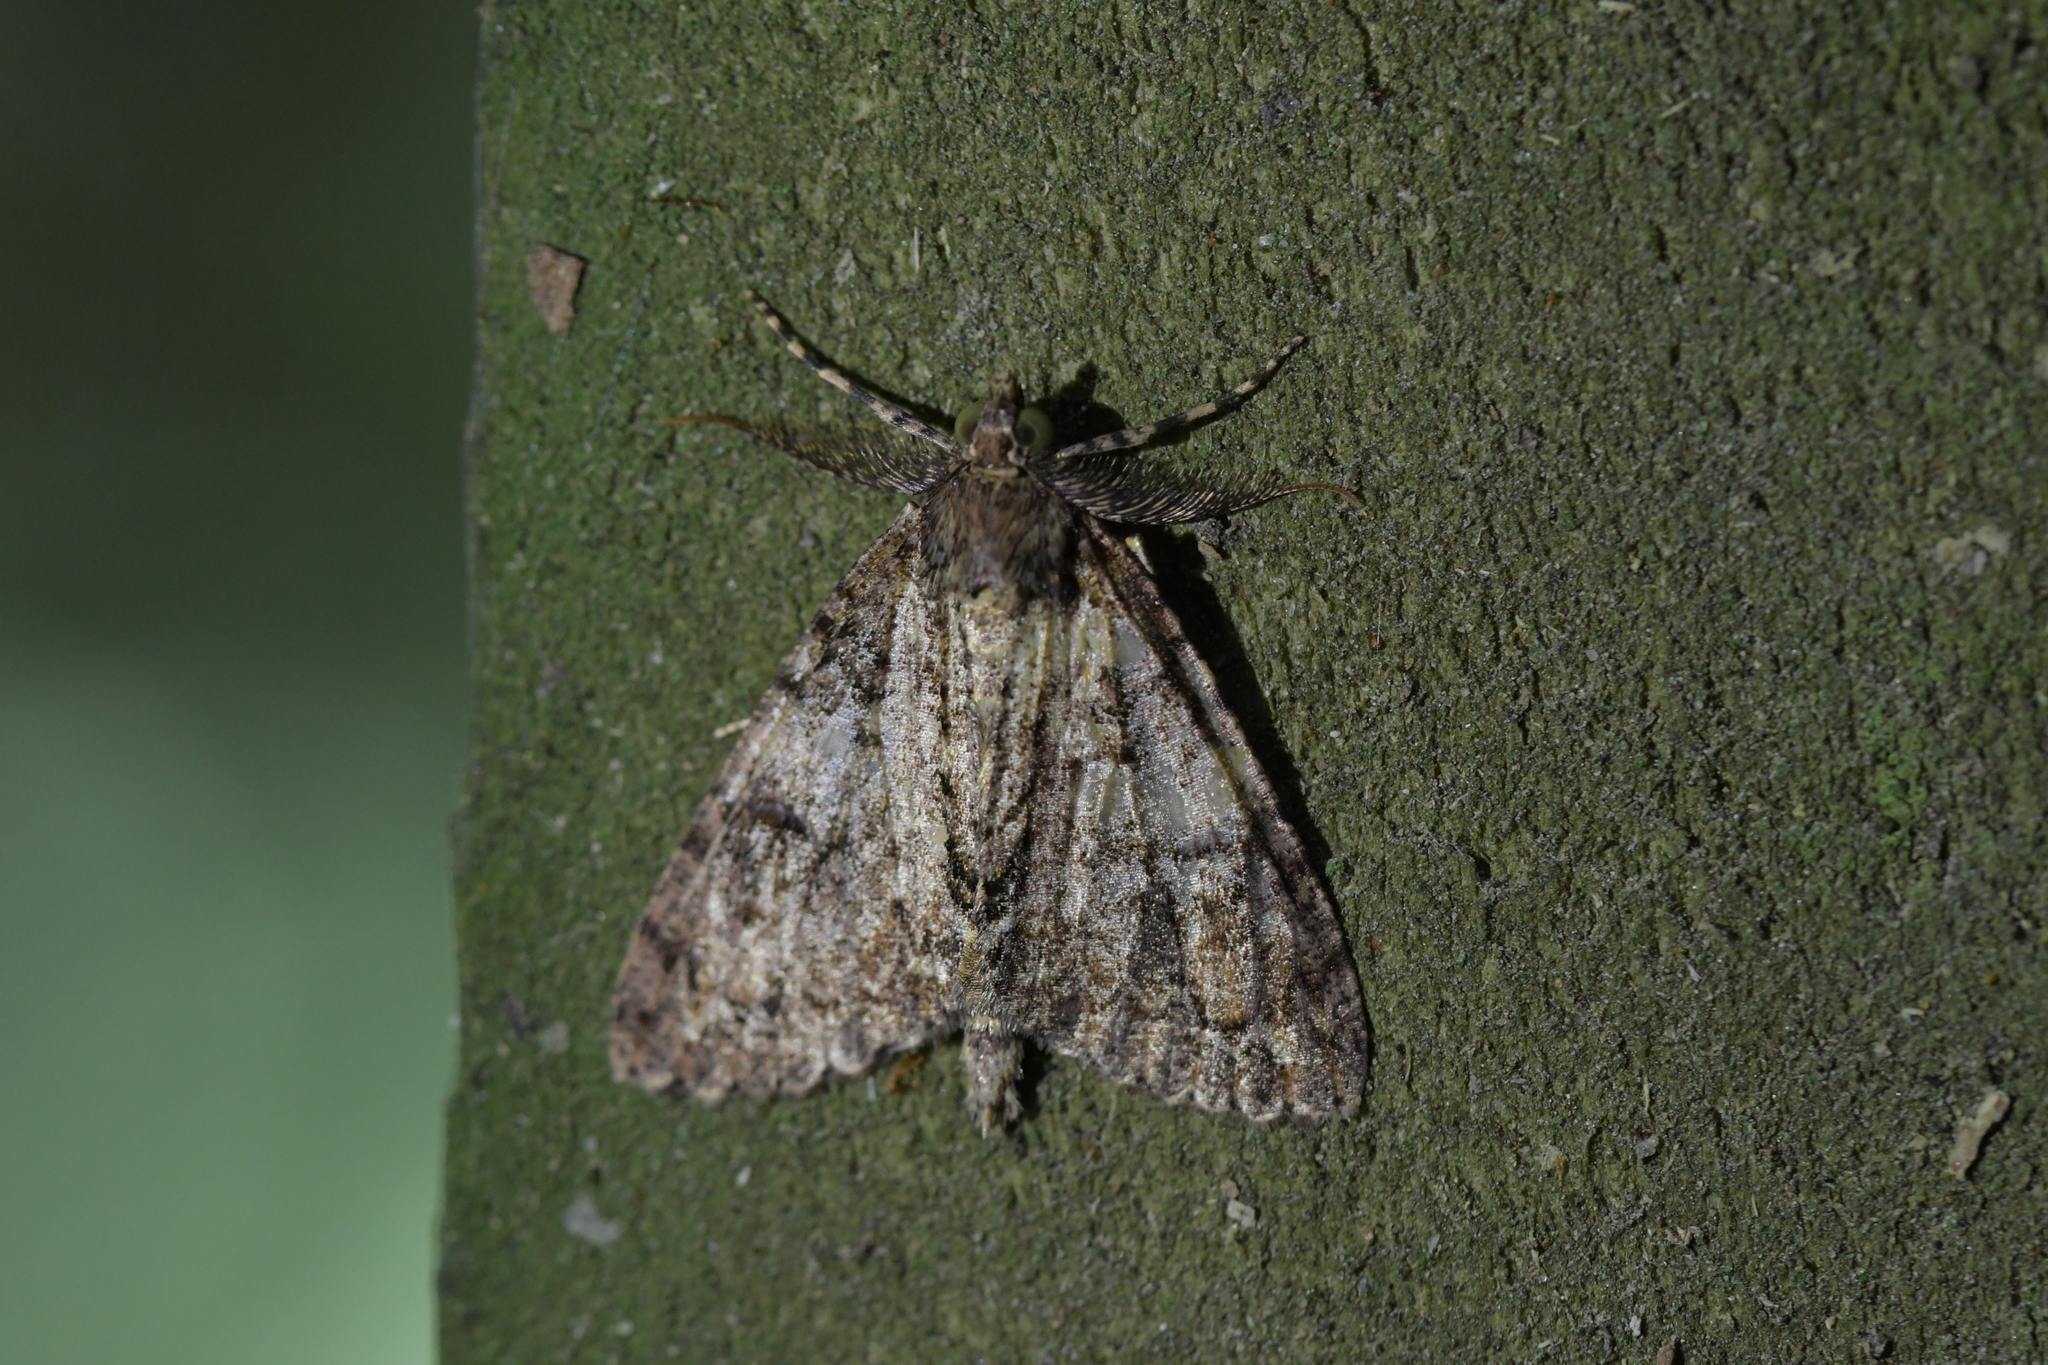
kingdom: Animalia
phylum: Arthropoda
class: Insecta
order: Lepidoptera
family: Geometridae
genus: Pseudocoremia
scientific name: Pseudocoremia suavis
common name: Common forest looper
